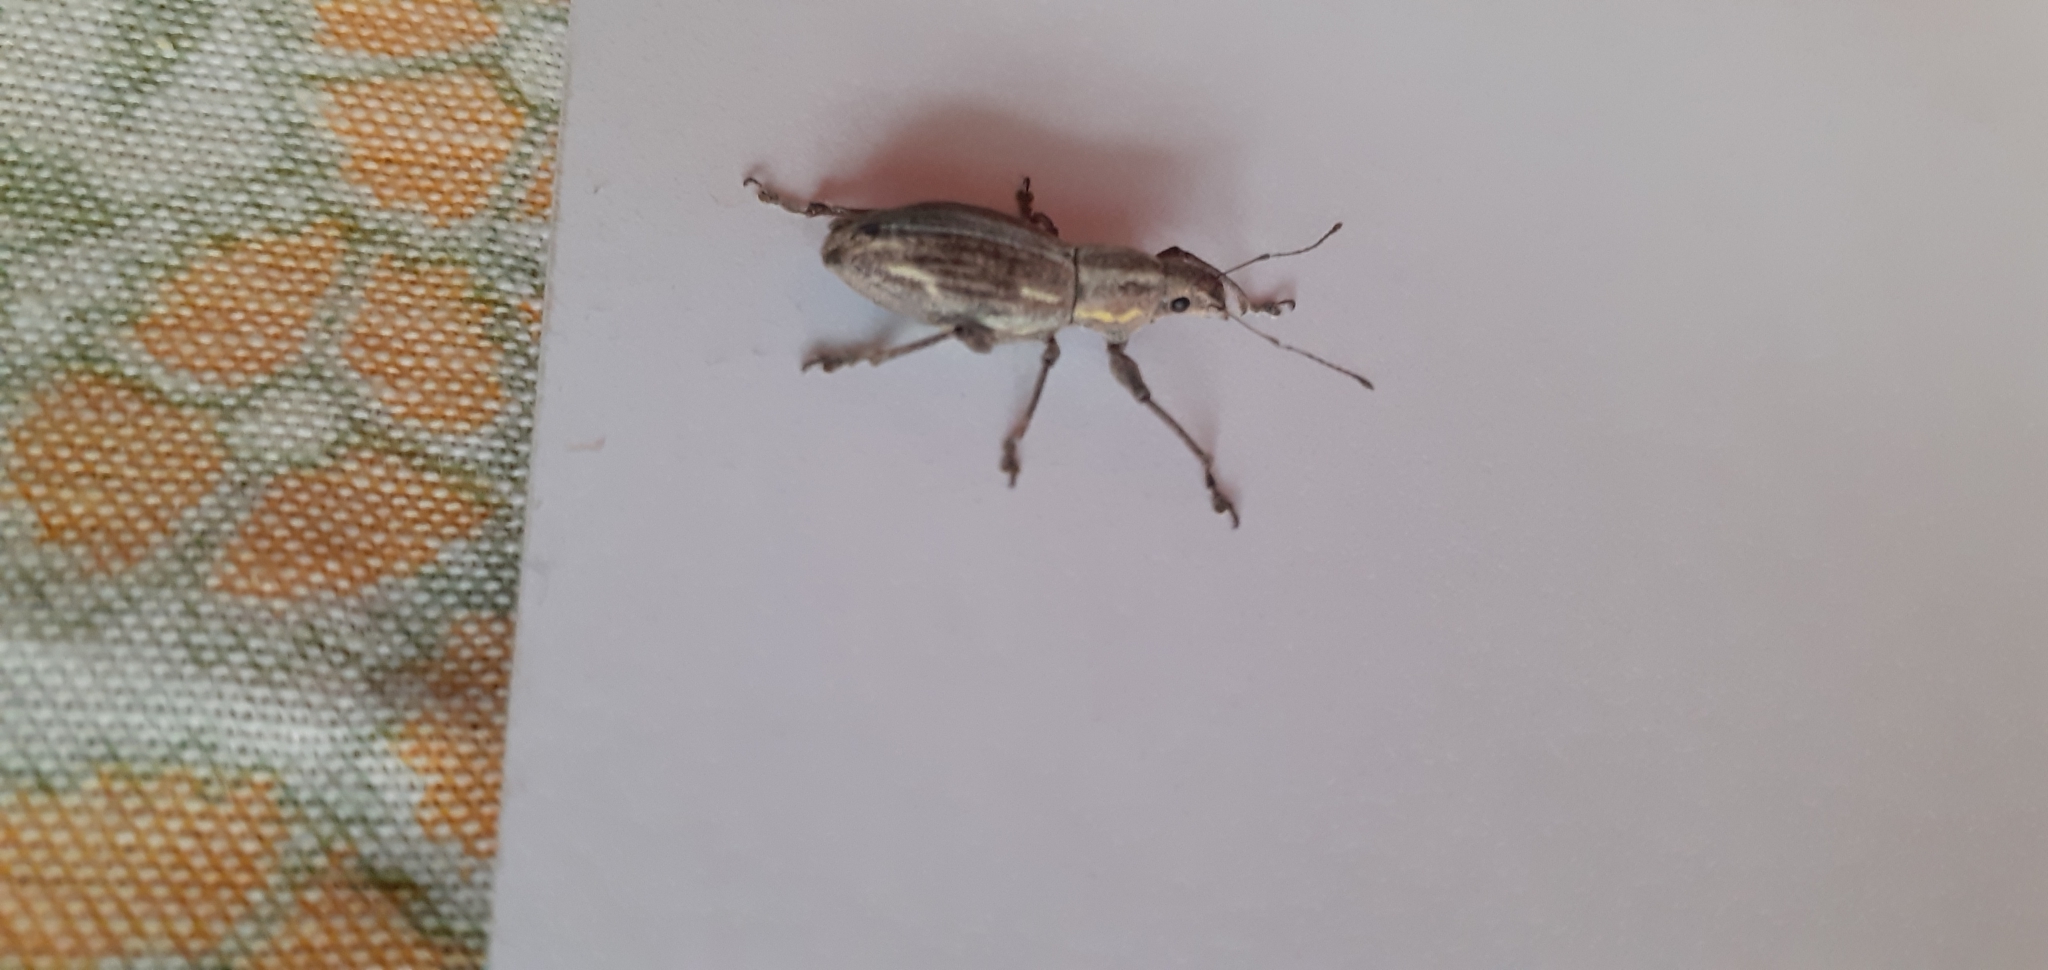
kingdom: Animalia
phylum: Arthropoda
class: Insecta
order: Coleoptera
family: Curculionidae
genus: Naupactus
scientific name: Naupactus xanthographus
